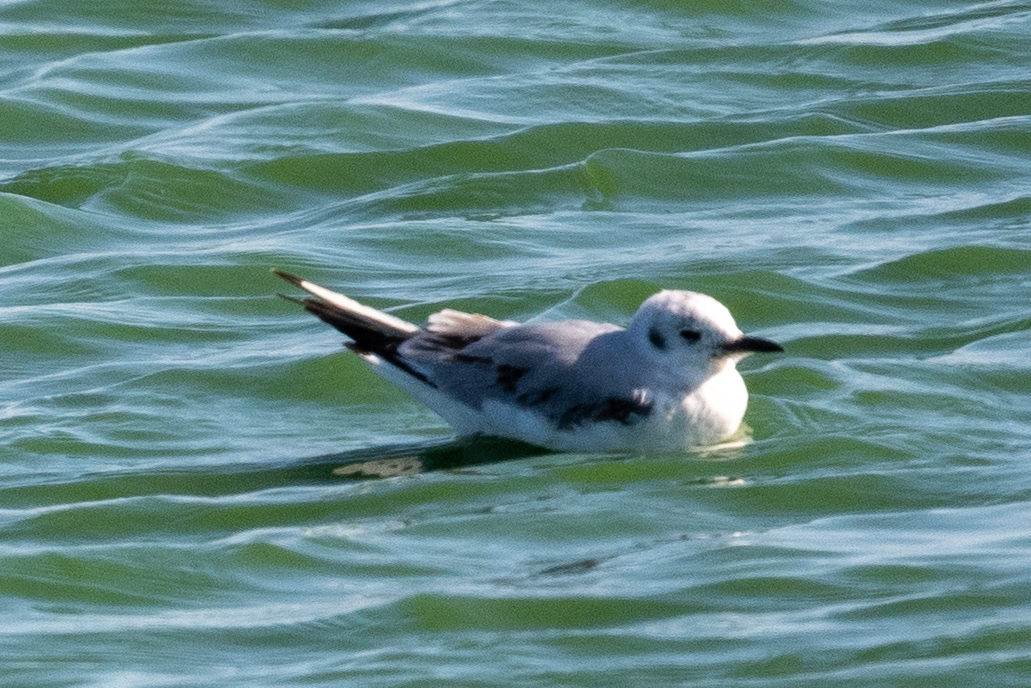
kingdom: Animalia
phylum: Chordata
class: Aves
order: Charadriiformes
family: Laridae
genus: Chroicocephalus
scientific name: Chroicocephalus philadelphia
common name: Bonaparte's gull
